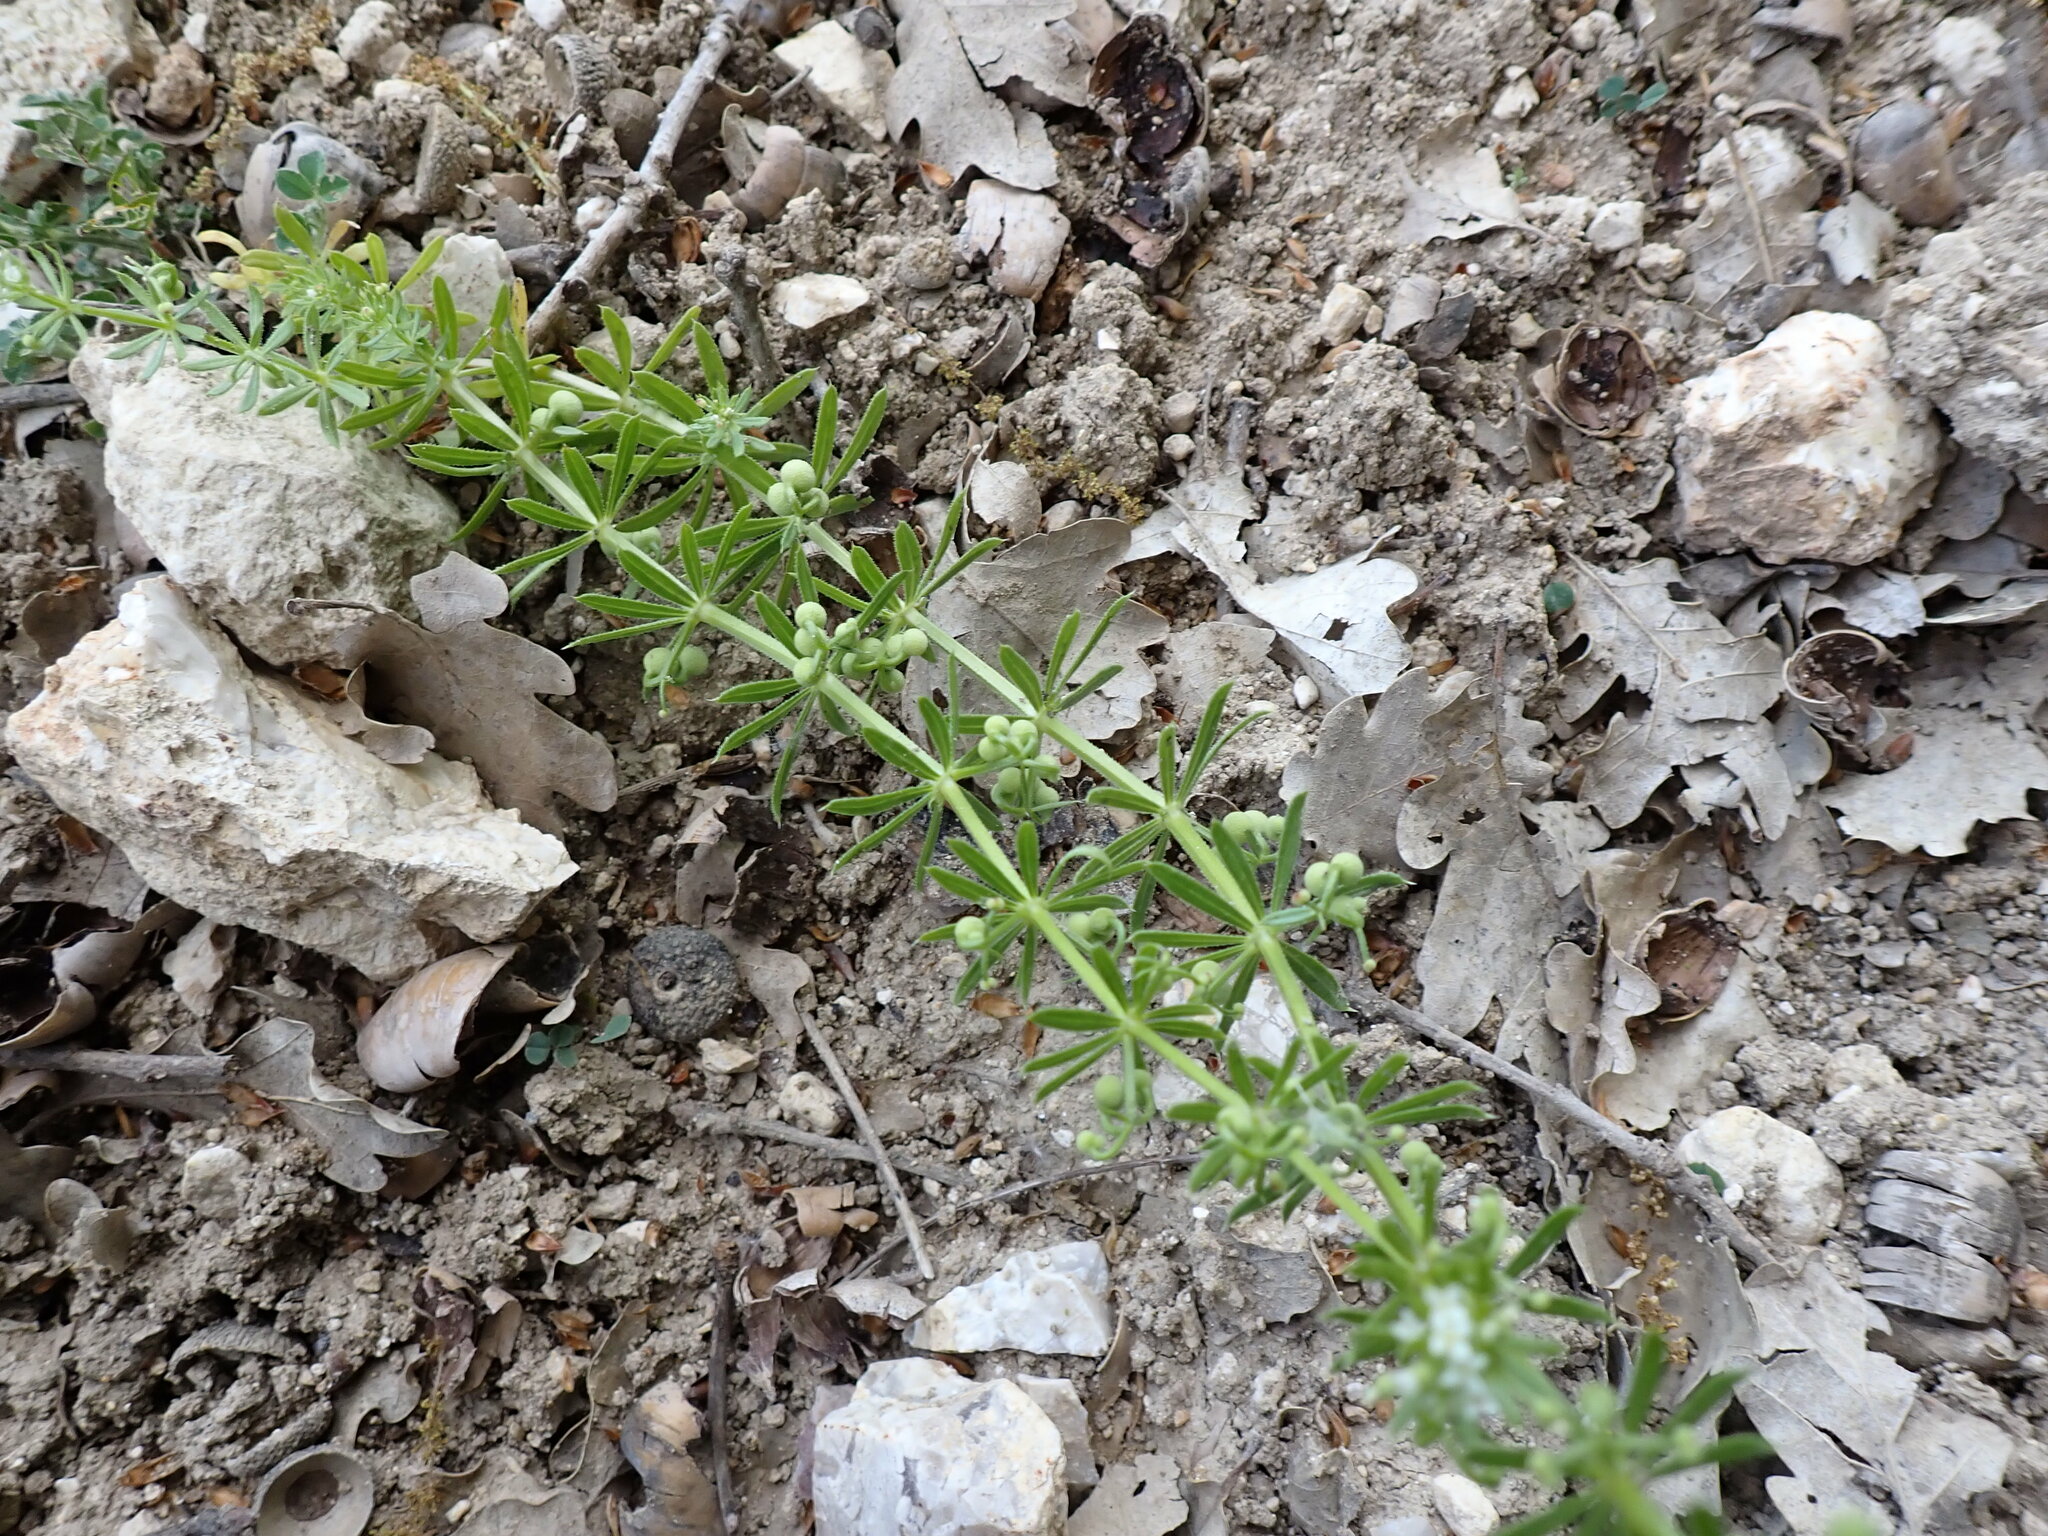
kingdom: Plantae
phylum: Tracheophyta
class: Magnoliopsida
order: Gentianales
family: Rubiaceae
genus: Galium
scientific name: Galium tricornutum
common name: Corn cleavers
